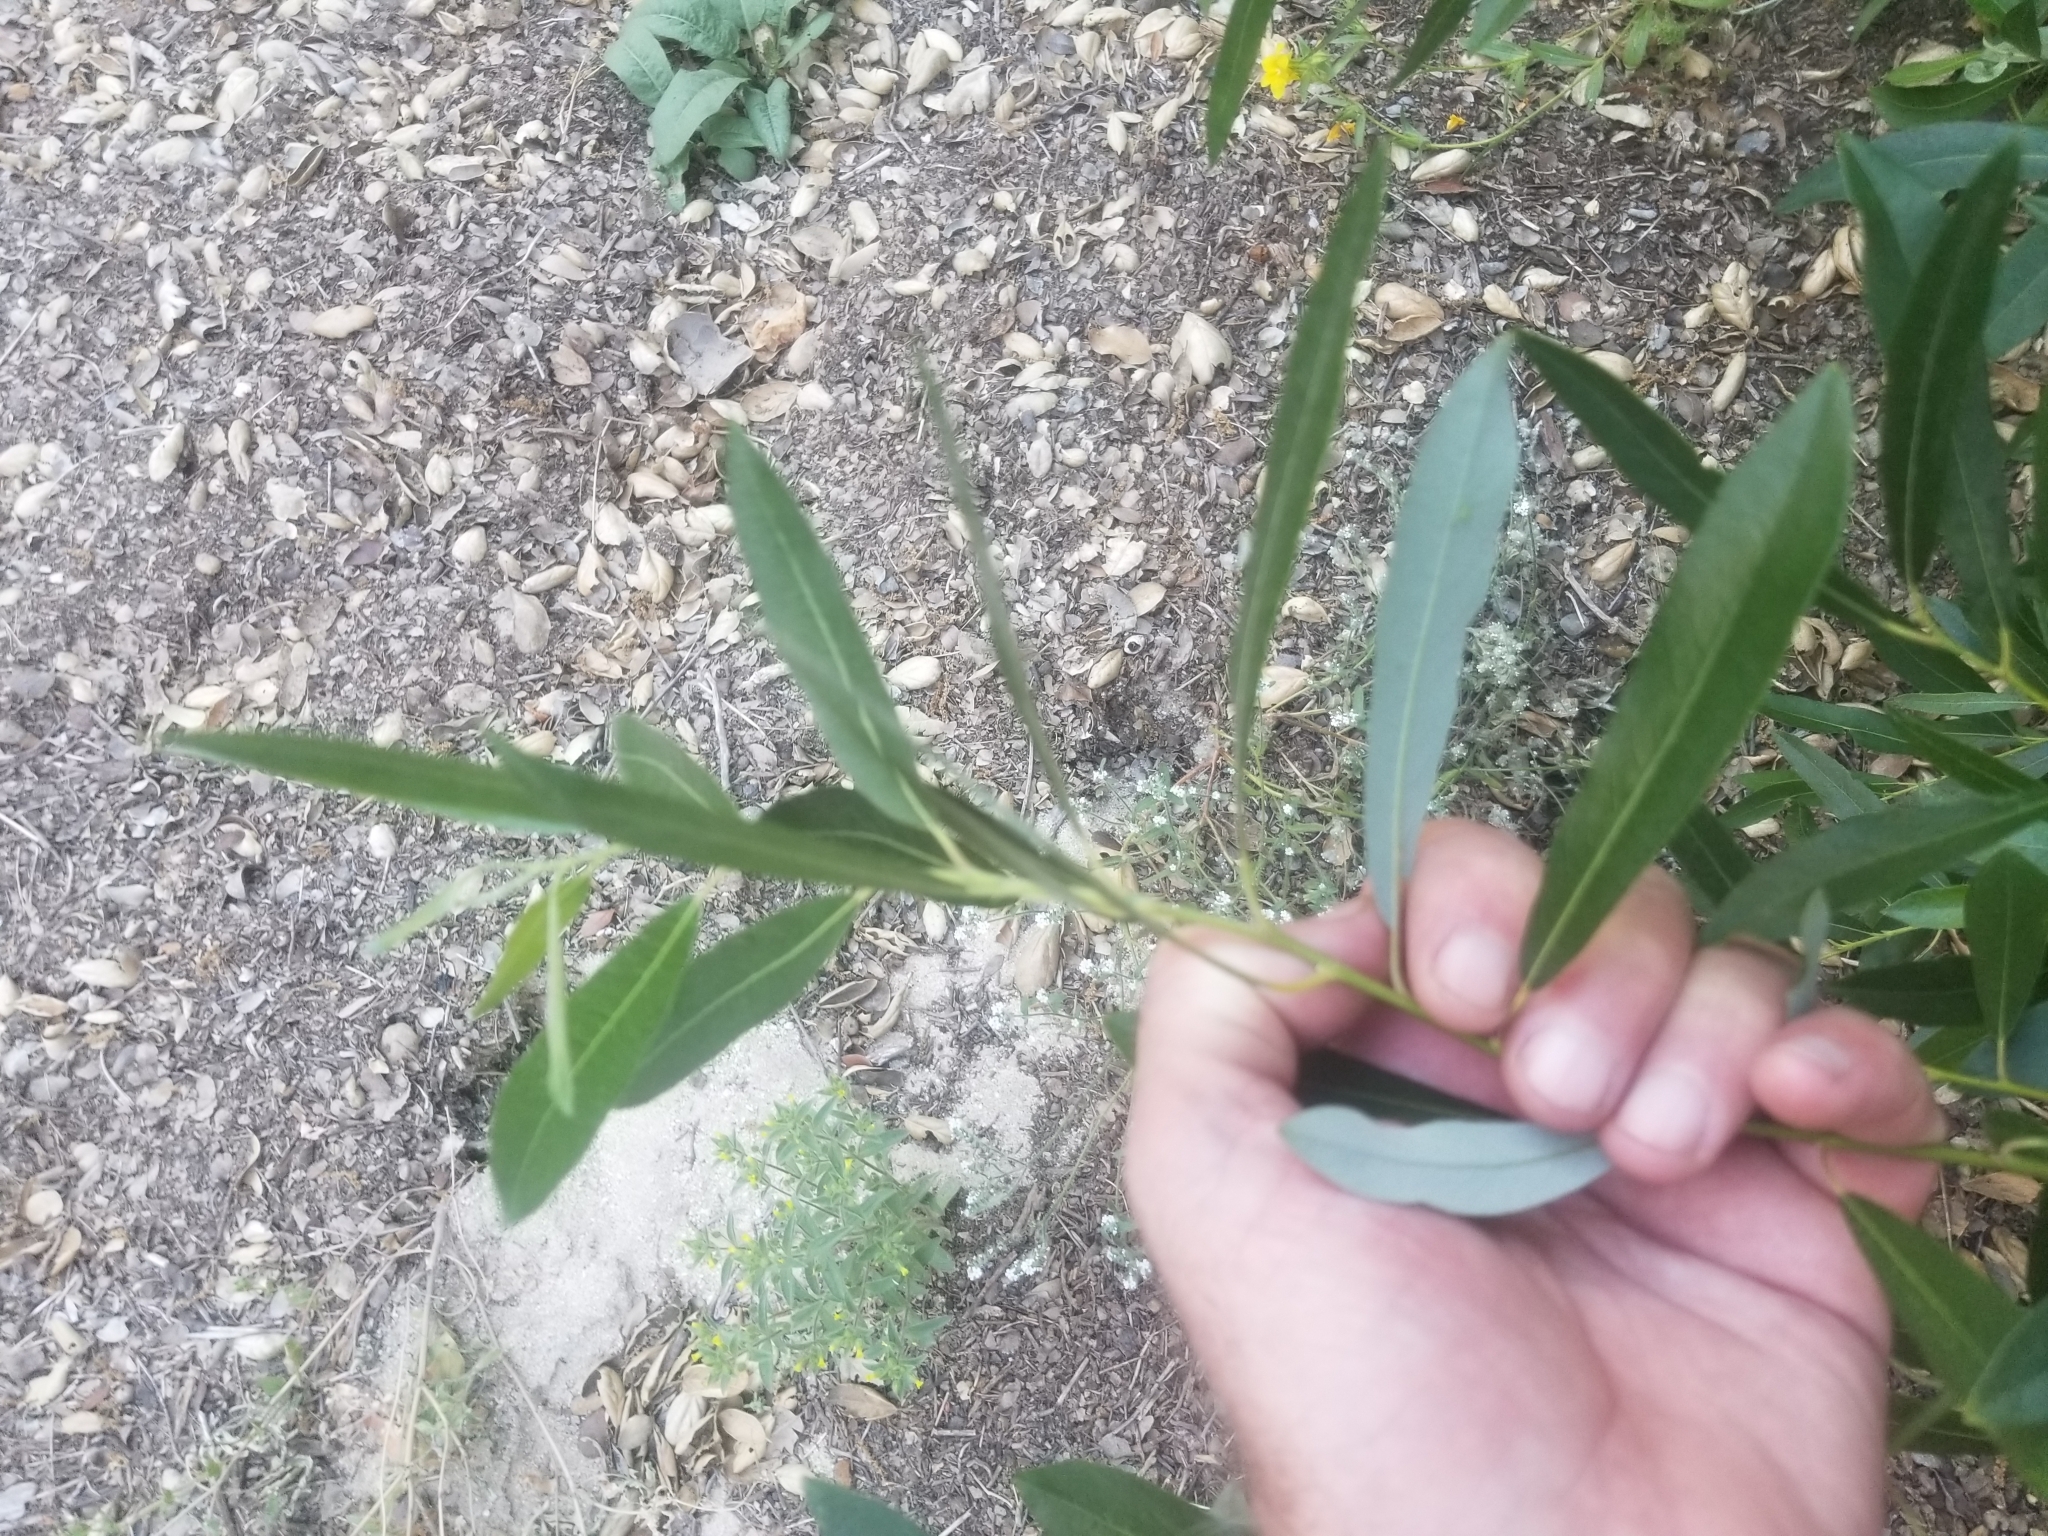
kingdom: Plantae
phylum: Tracheophyta
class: Magnoliopsida
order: Malpighiales
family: Salicaceae
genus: Salix
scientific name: Salix lasiolepis
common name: Arroyo willow
